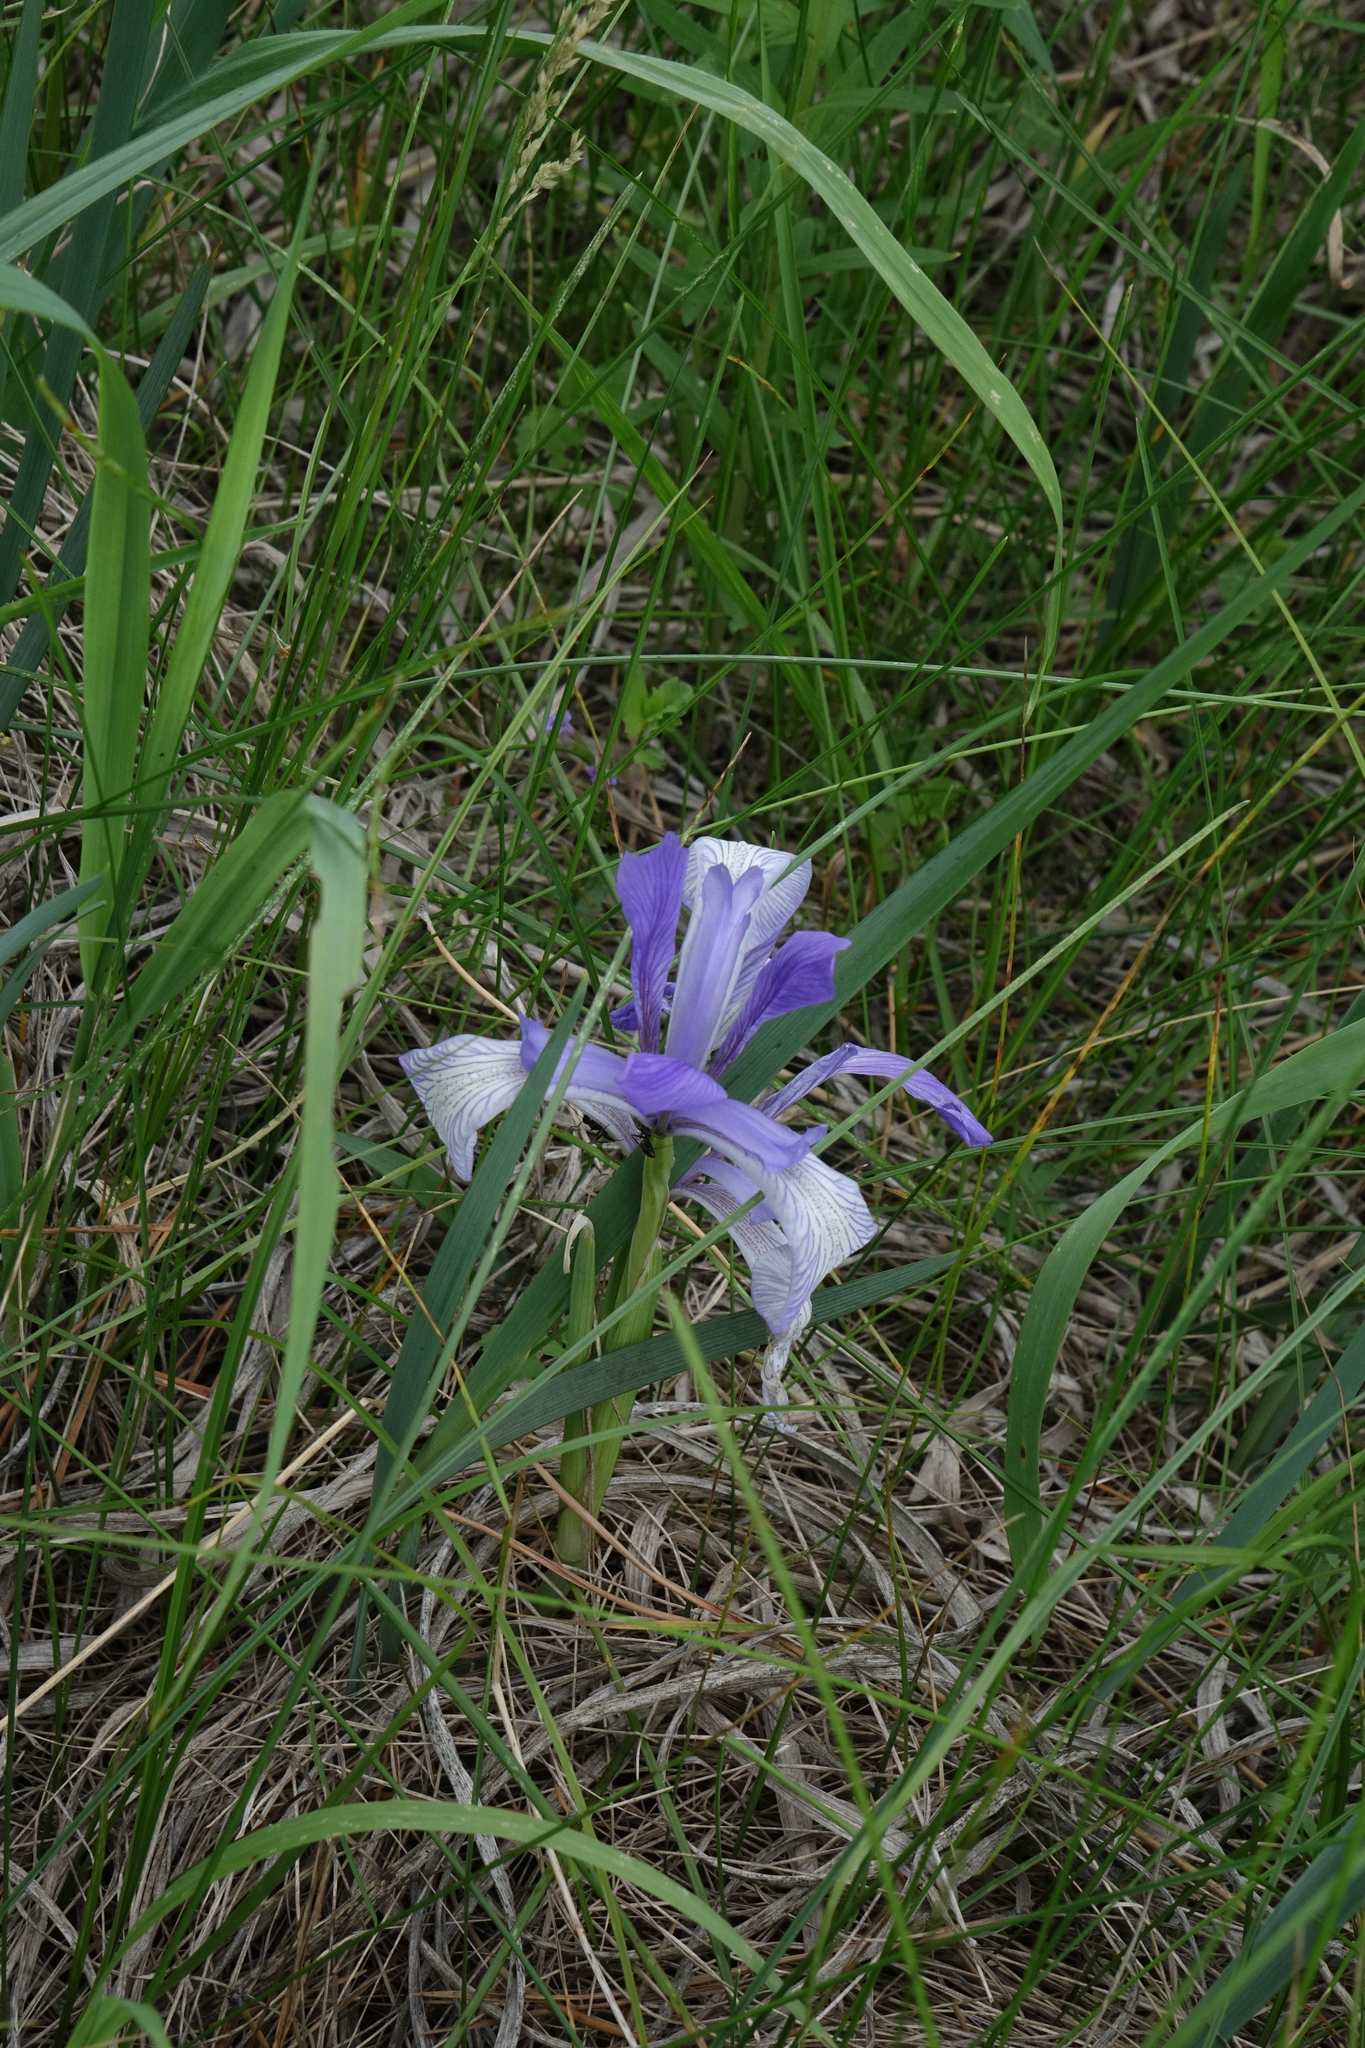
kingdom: Plantae
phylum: Tracheophyta
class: Liliopsida
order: Asparagales
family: Iridaceae
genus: Iris
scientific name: Iris lactea
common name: White-flower chinese iris
